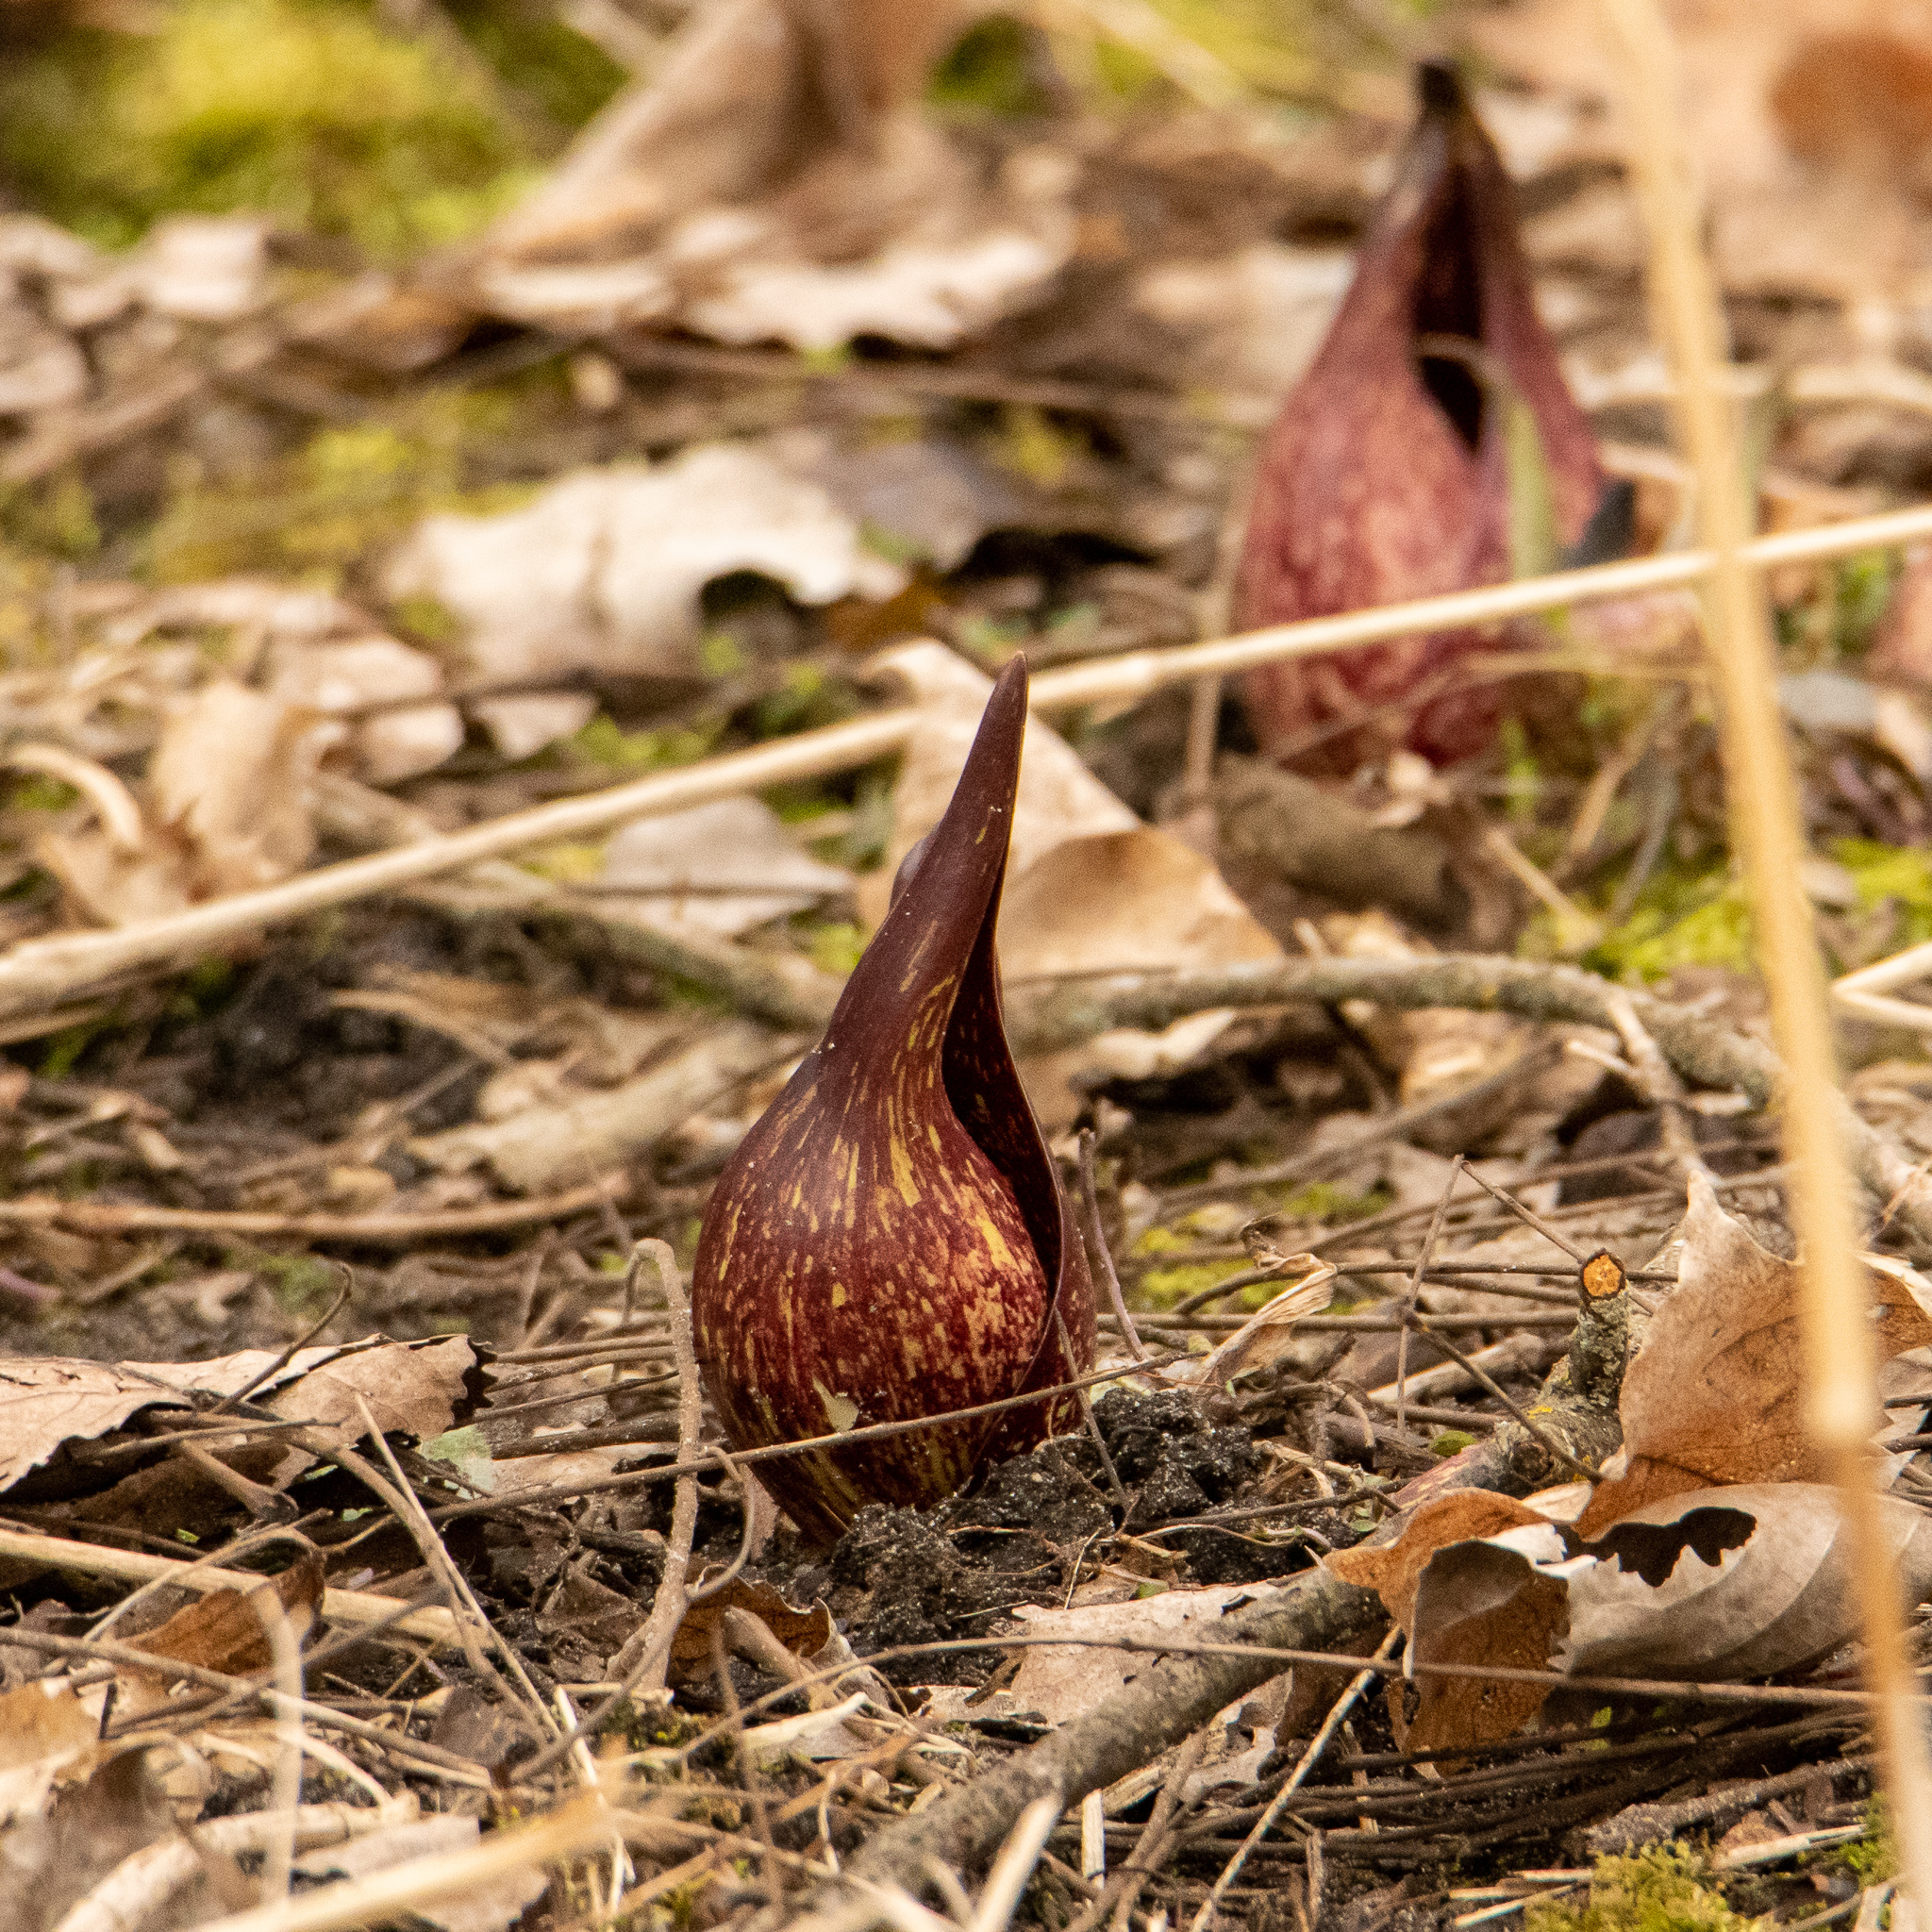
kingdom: Plantae
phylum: Tracheophyta
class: Liliopsida
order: Alismatales
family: Araceae
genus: Symplocarpus
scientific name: Symplocarpus foetidus
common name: Eastern skunk cabbage
